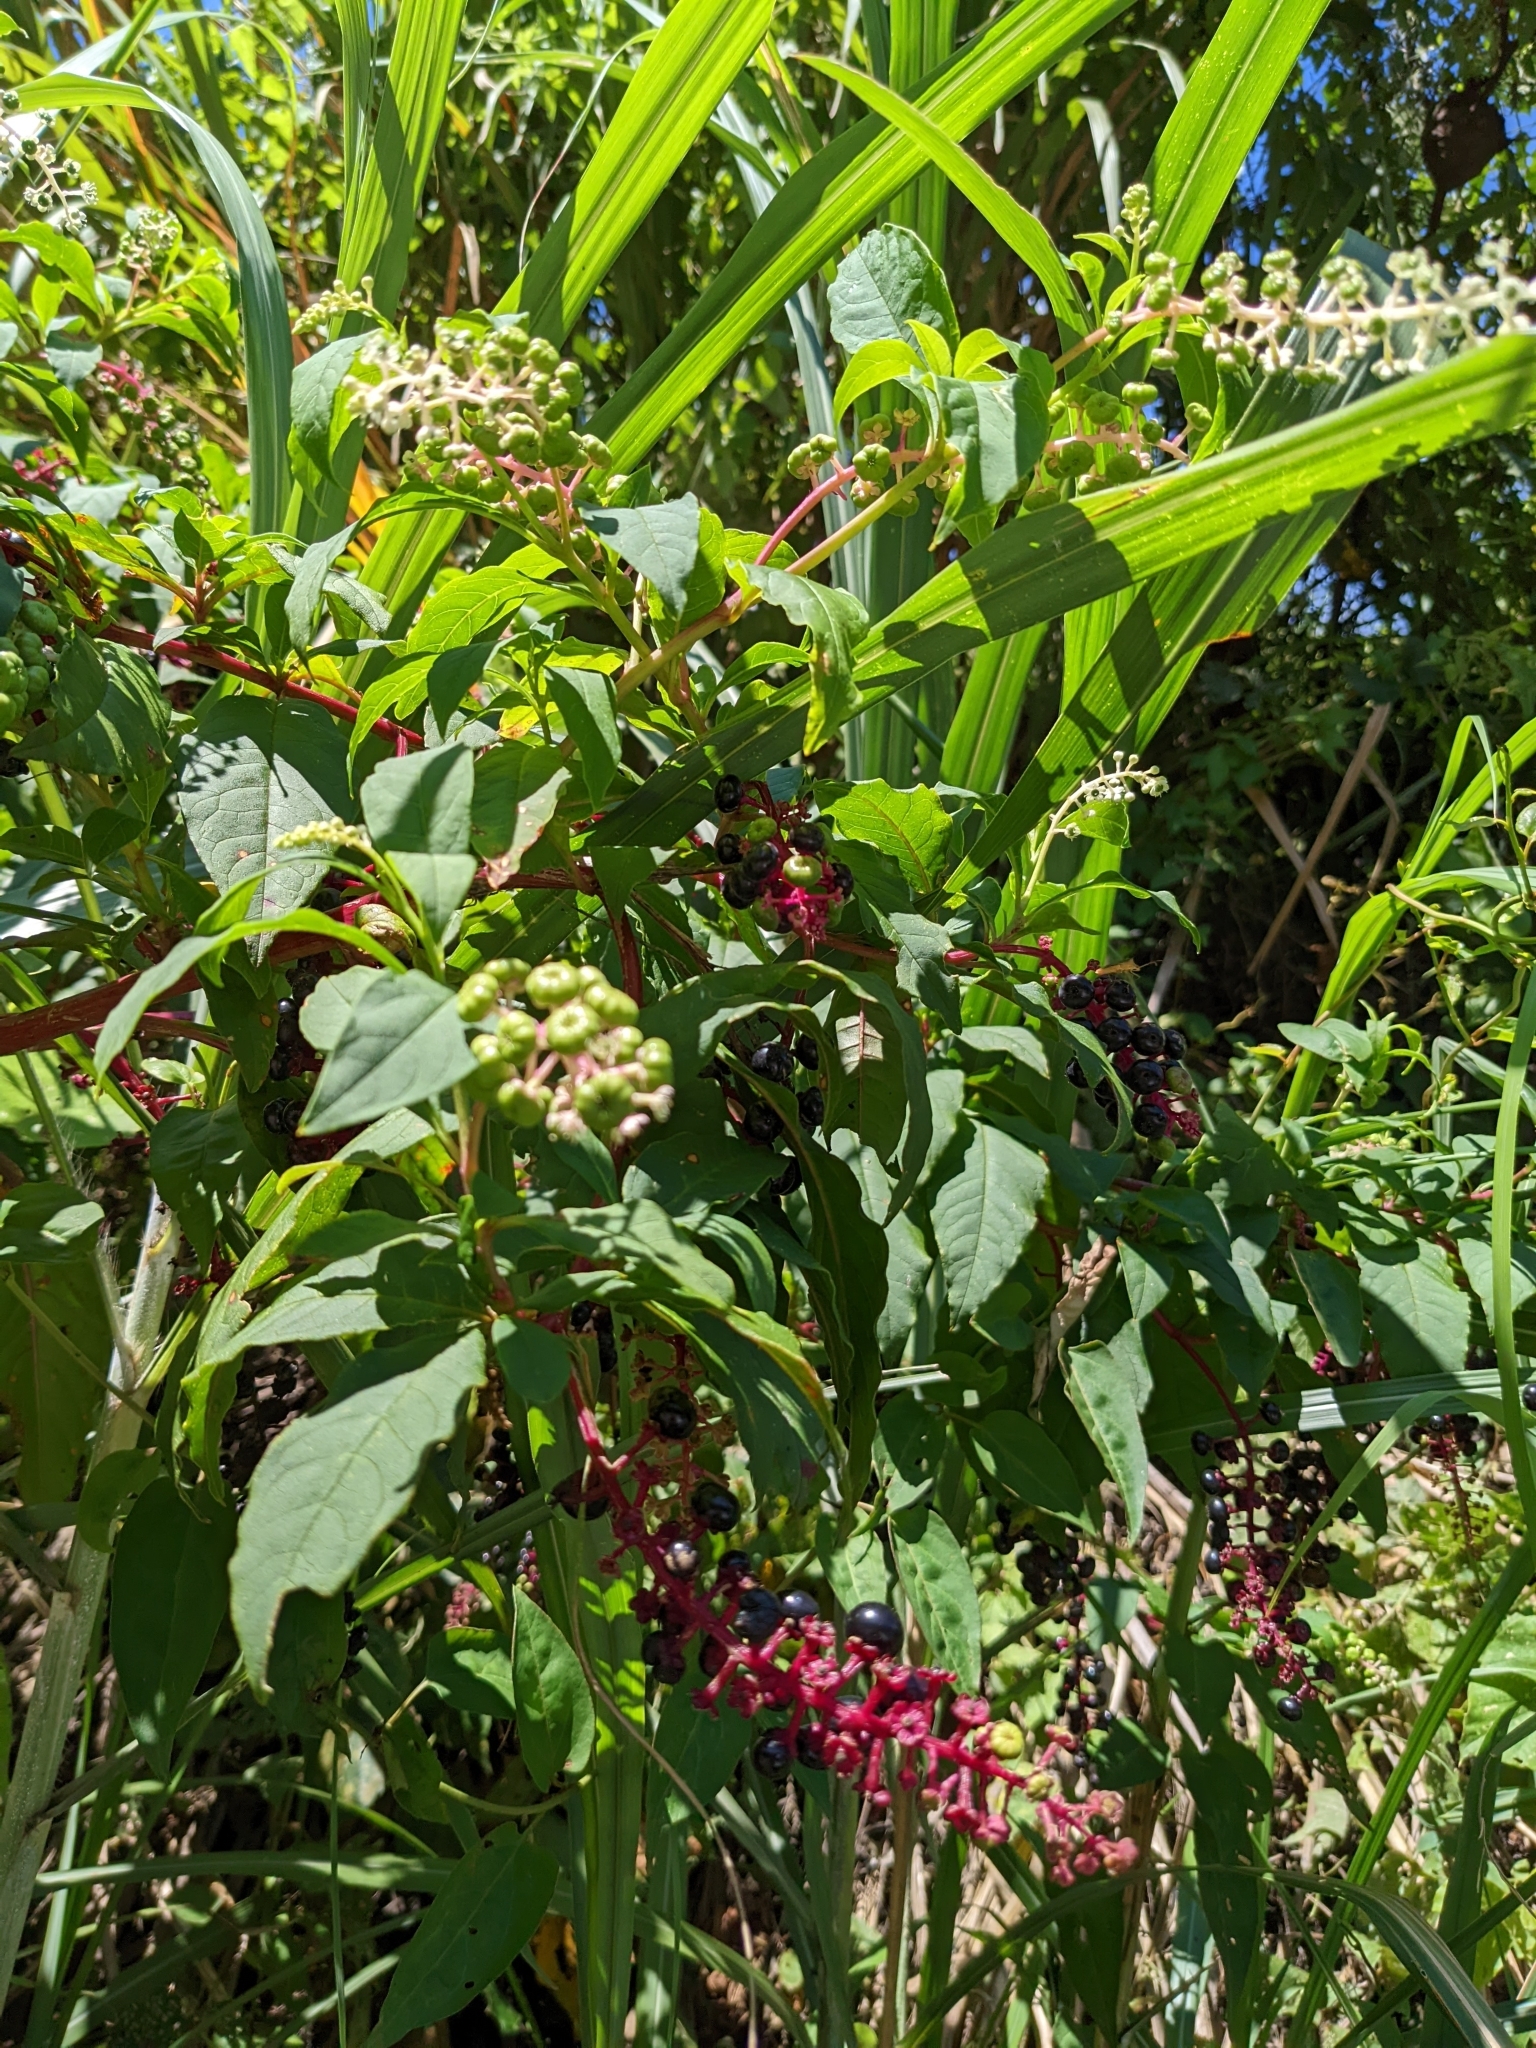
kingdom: Plantae
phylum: Tracheophyta
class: Magnoliopsida
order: Caryophyllales
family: Phytolaccaceae
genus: Phytolacca
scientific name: Phytolacca americana
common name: American pokeweed
